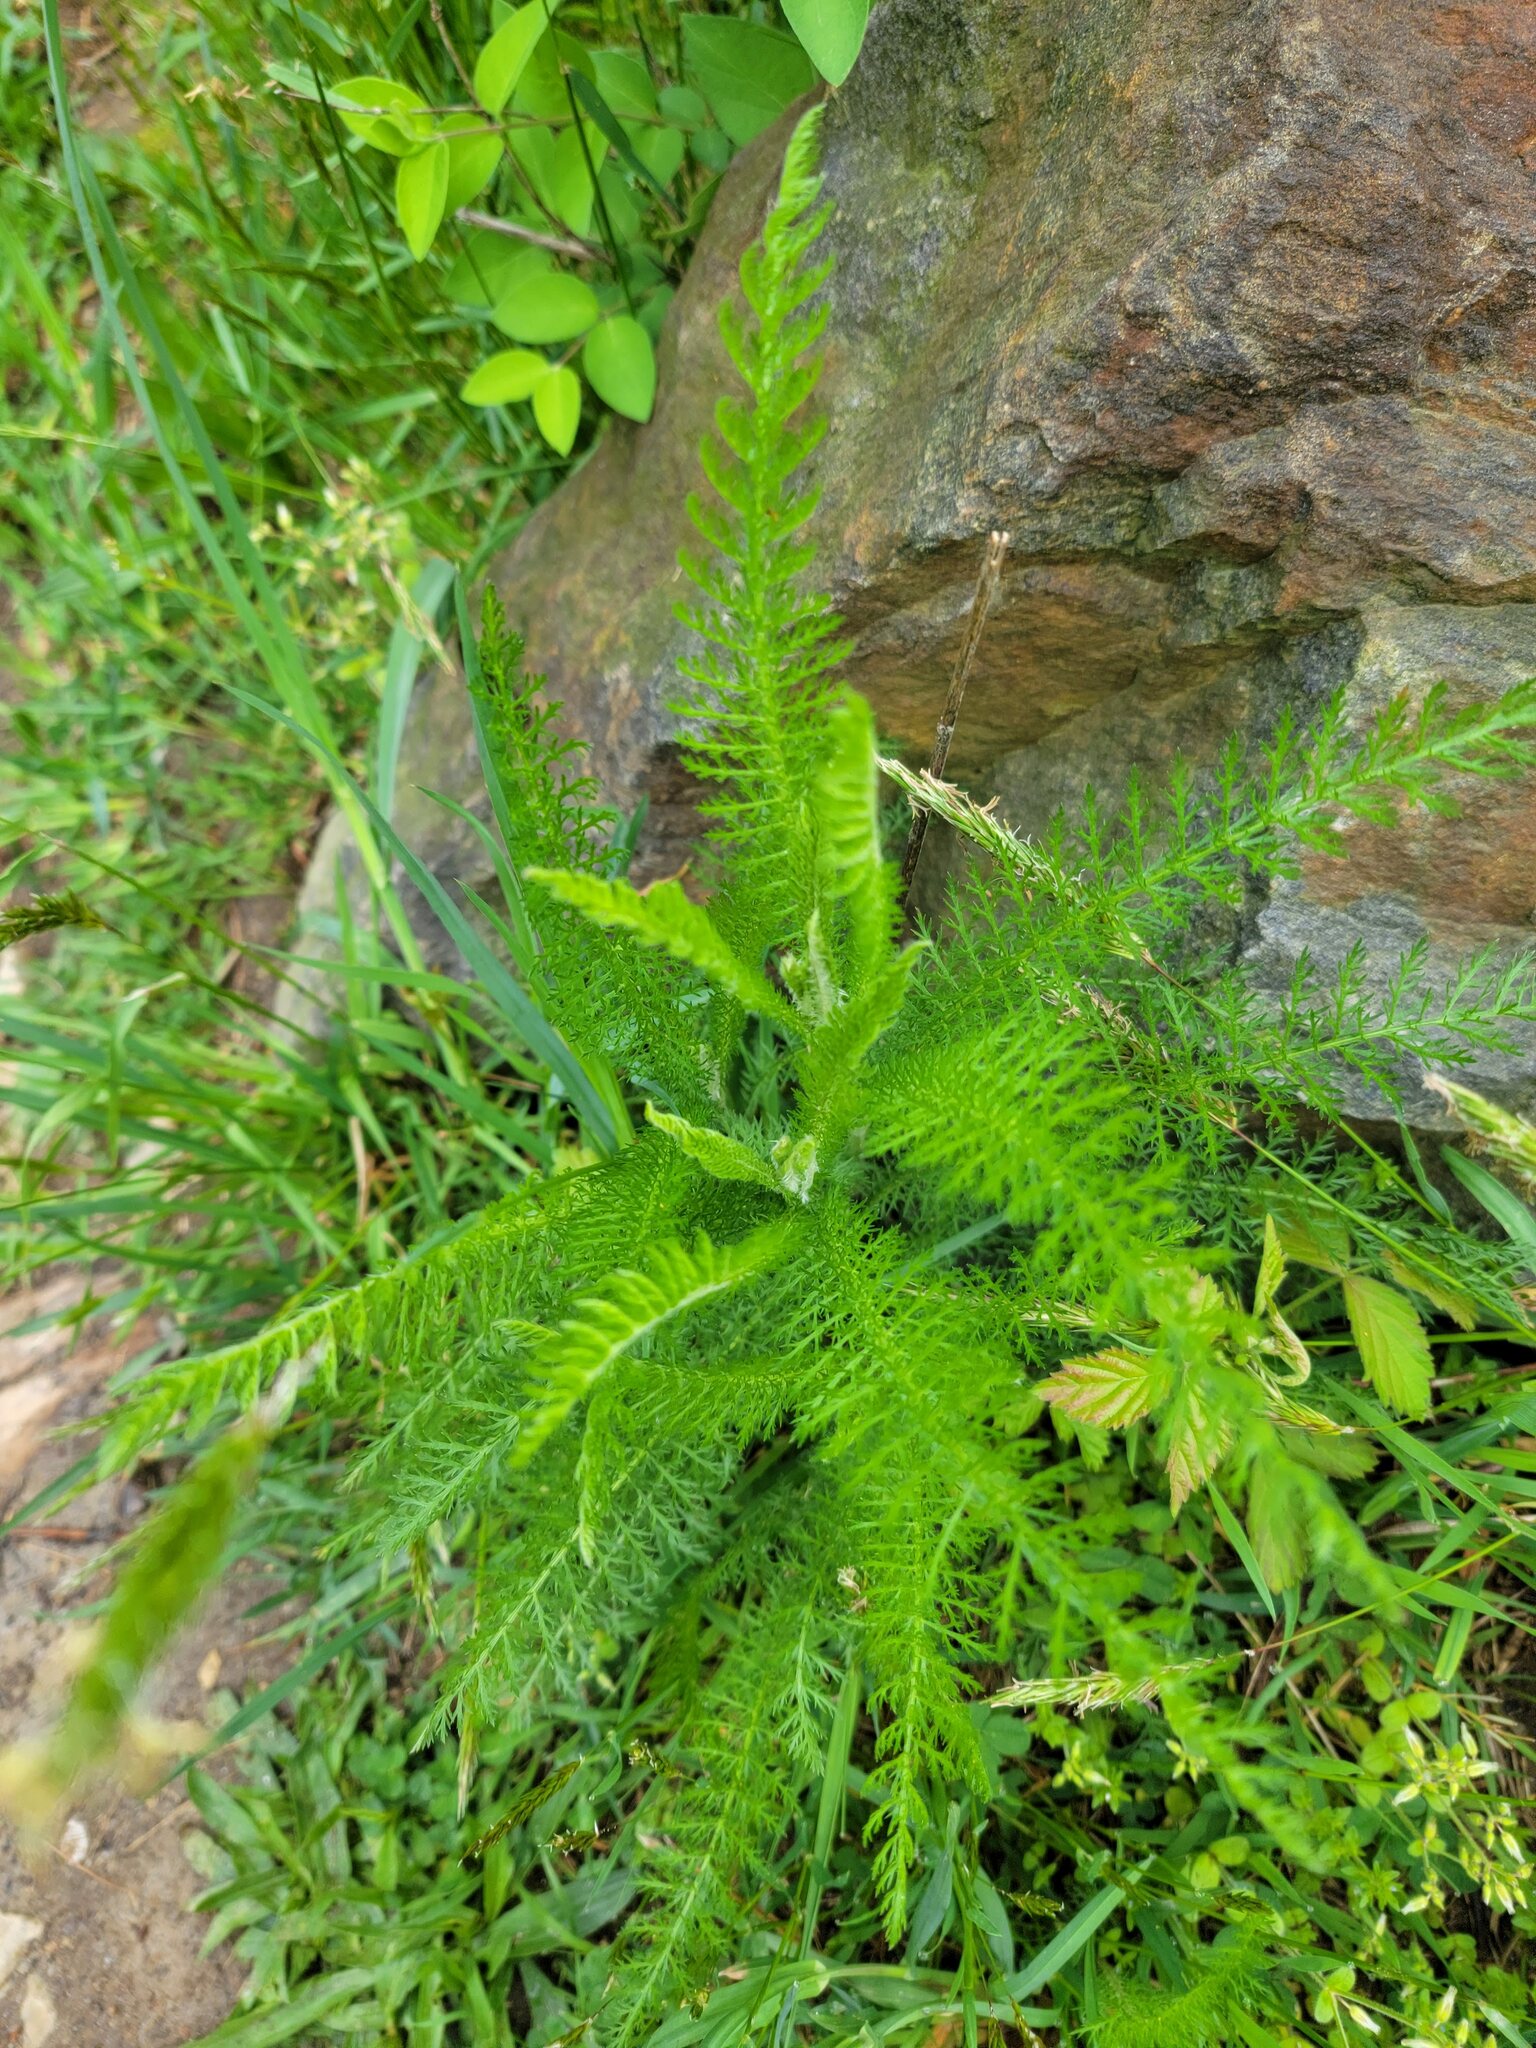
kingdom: Plantae
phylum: Tracheophyta
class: Magnoliopsida
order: Asterales
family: Asteraceae
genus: Achillea
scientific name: Achillea millefolium
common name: Yarrow
